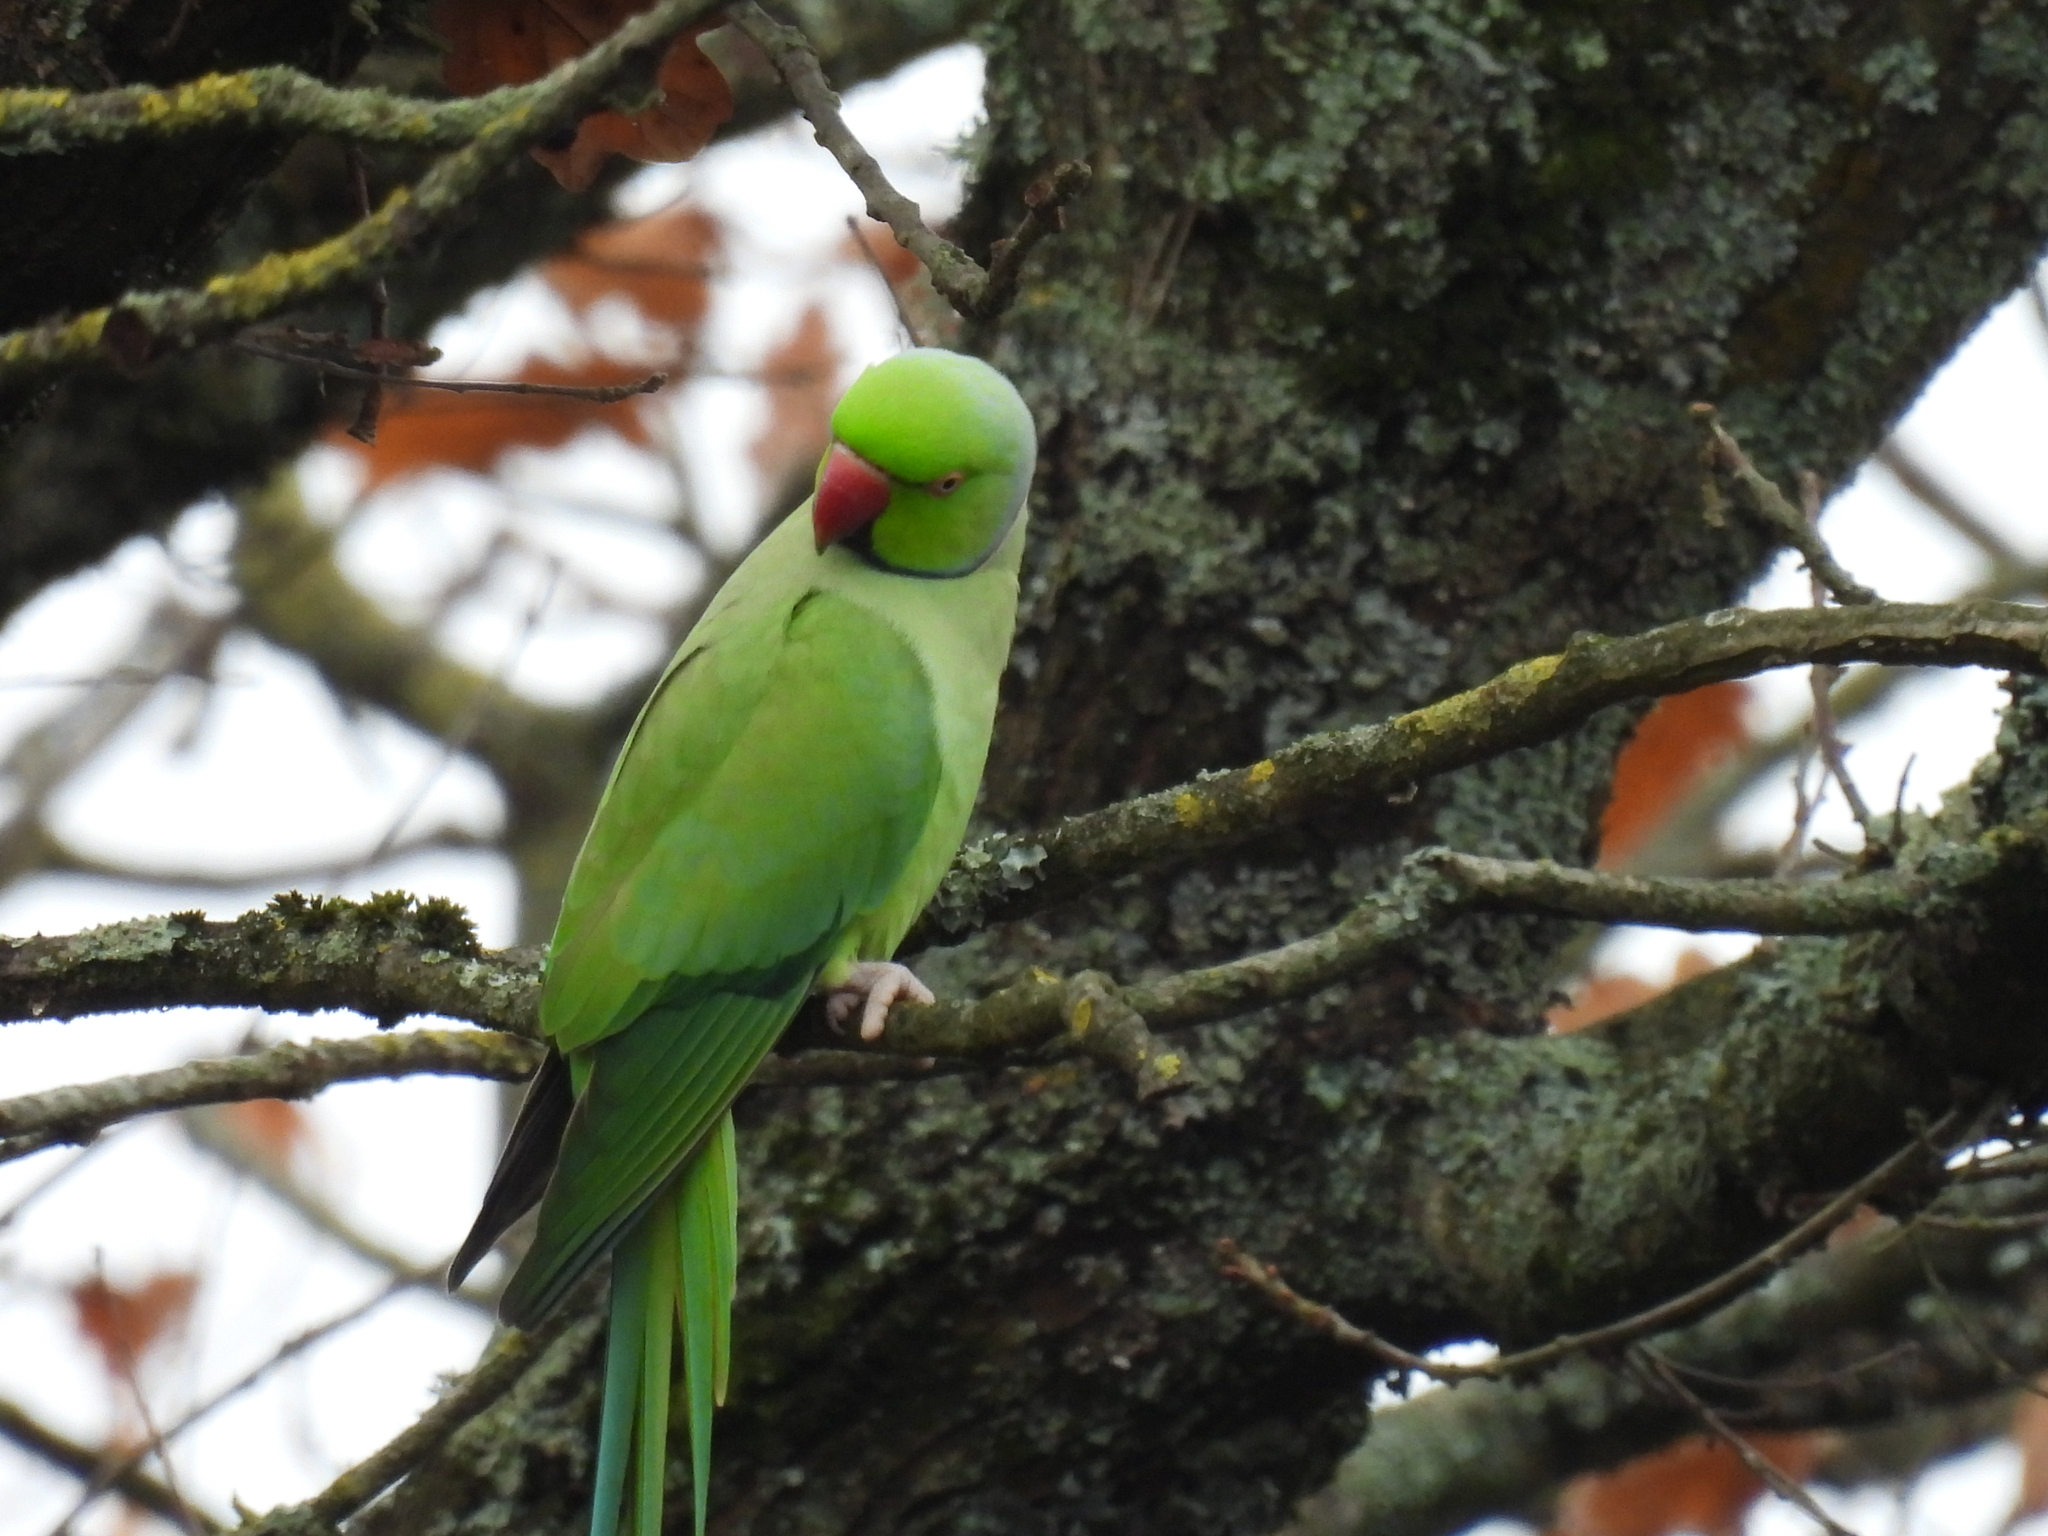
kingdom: Animalia
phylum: Chordata
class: Aves
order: Psittaciformes
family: Psittacidae
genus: Psittacula
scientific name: Psittacula krameri
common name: Rose-ringed parakeet
